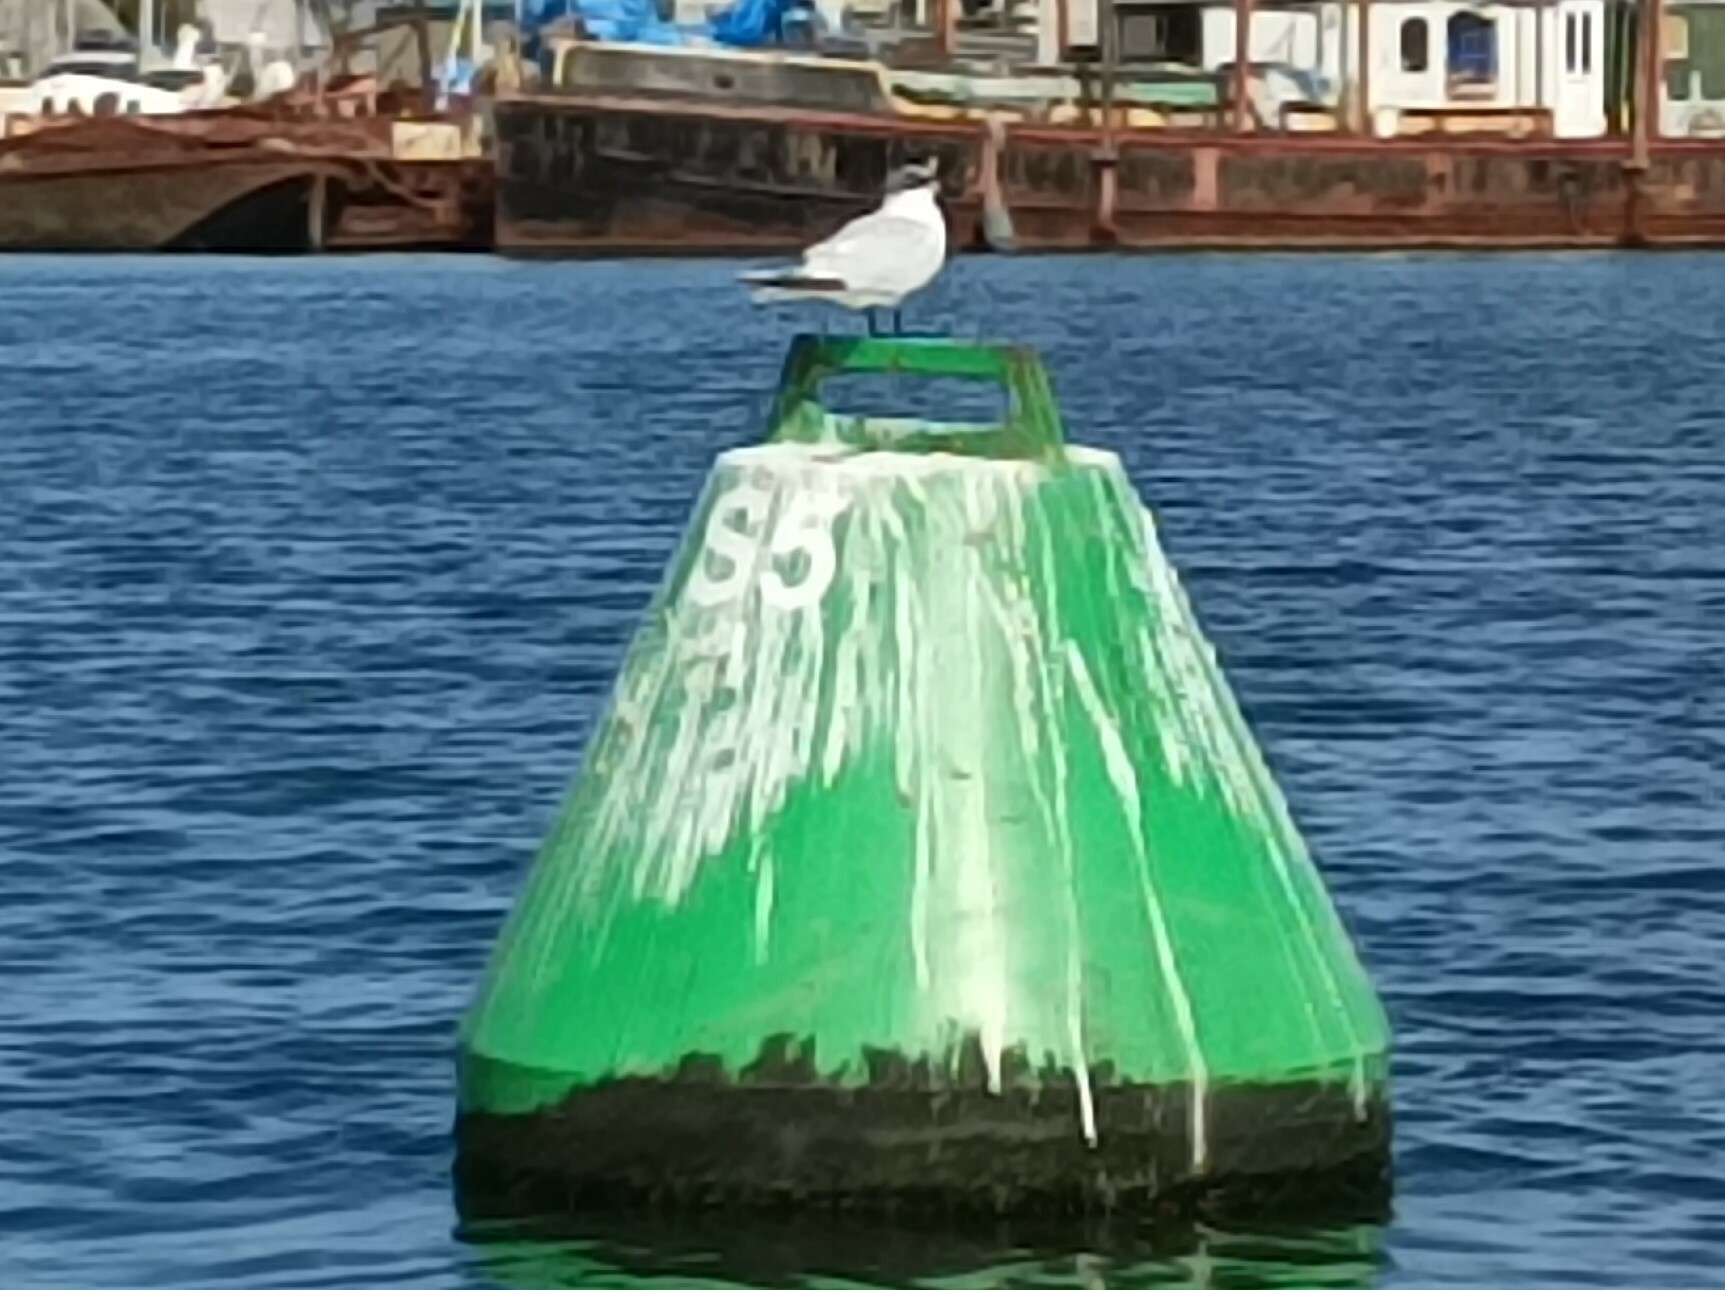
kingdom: Animalia
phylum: Chordata
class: Aves
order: Charadriiformes
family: Laridae
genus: Thalasseus
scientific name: Thalasseus sandvicensis
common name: Sandwich tern
